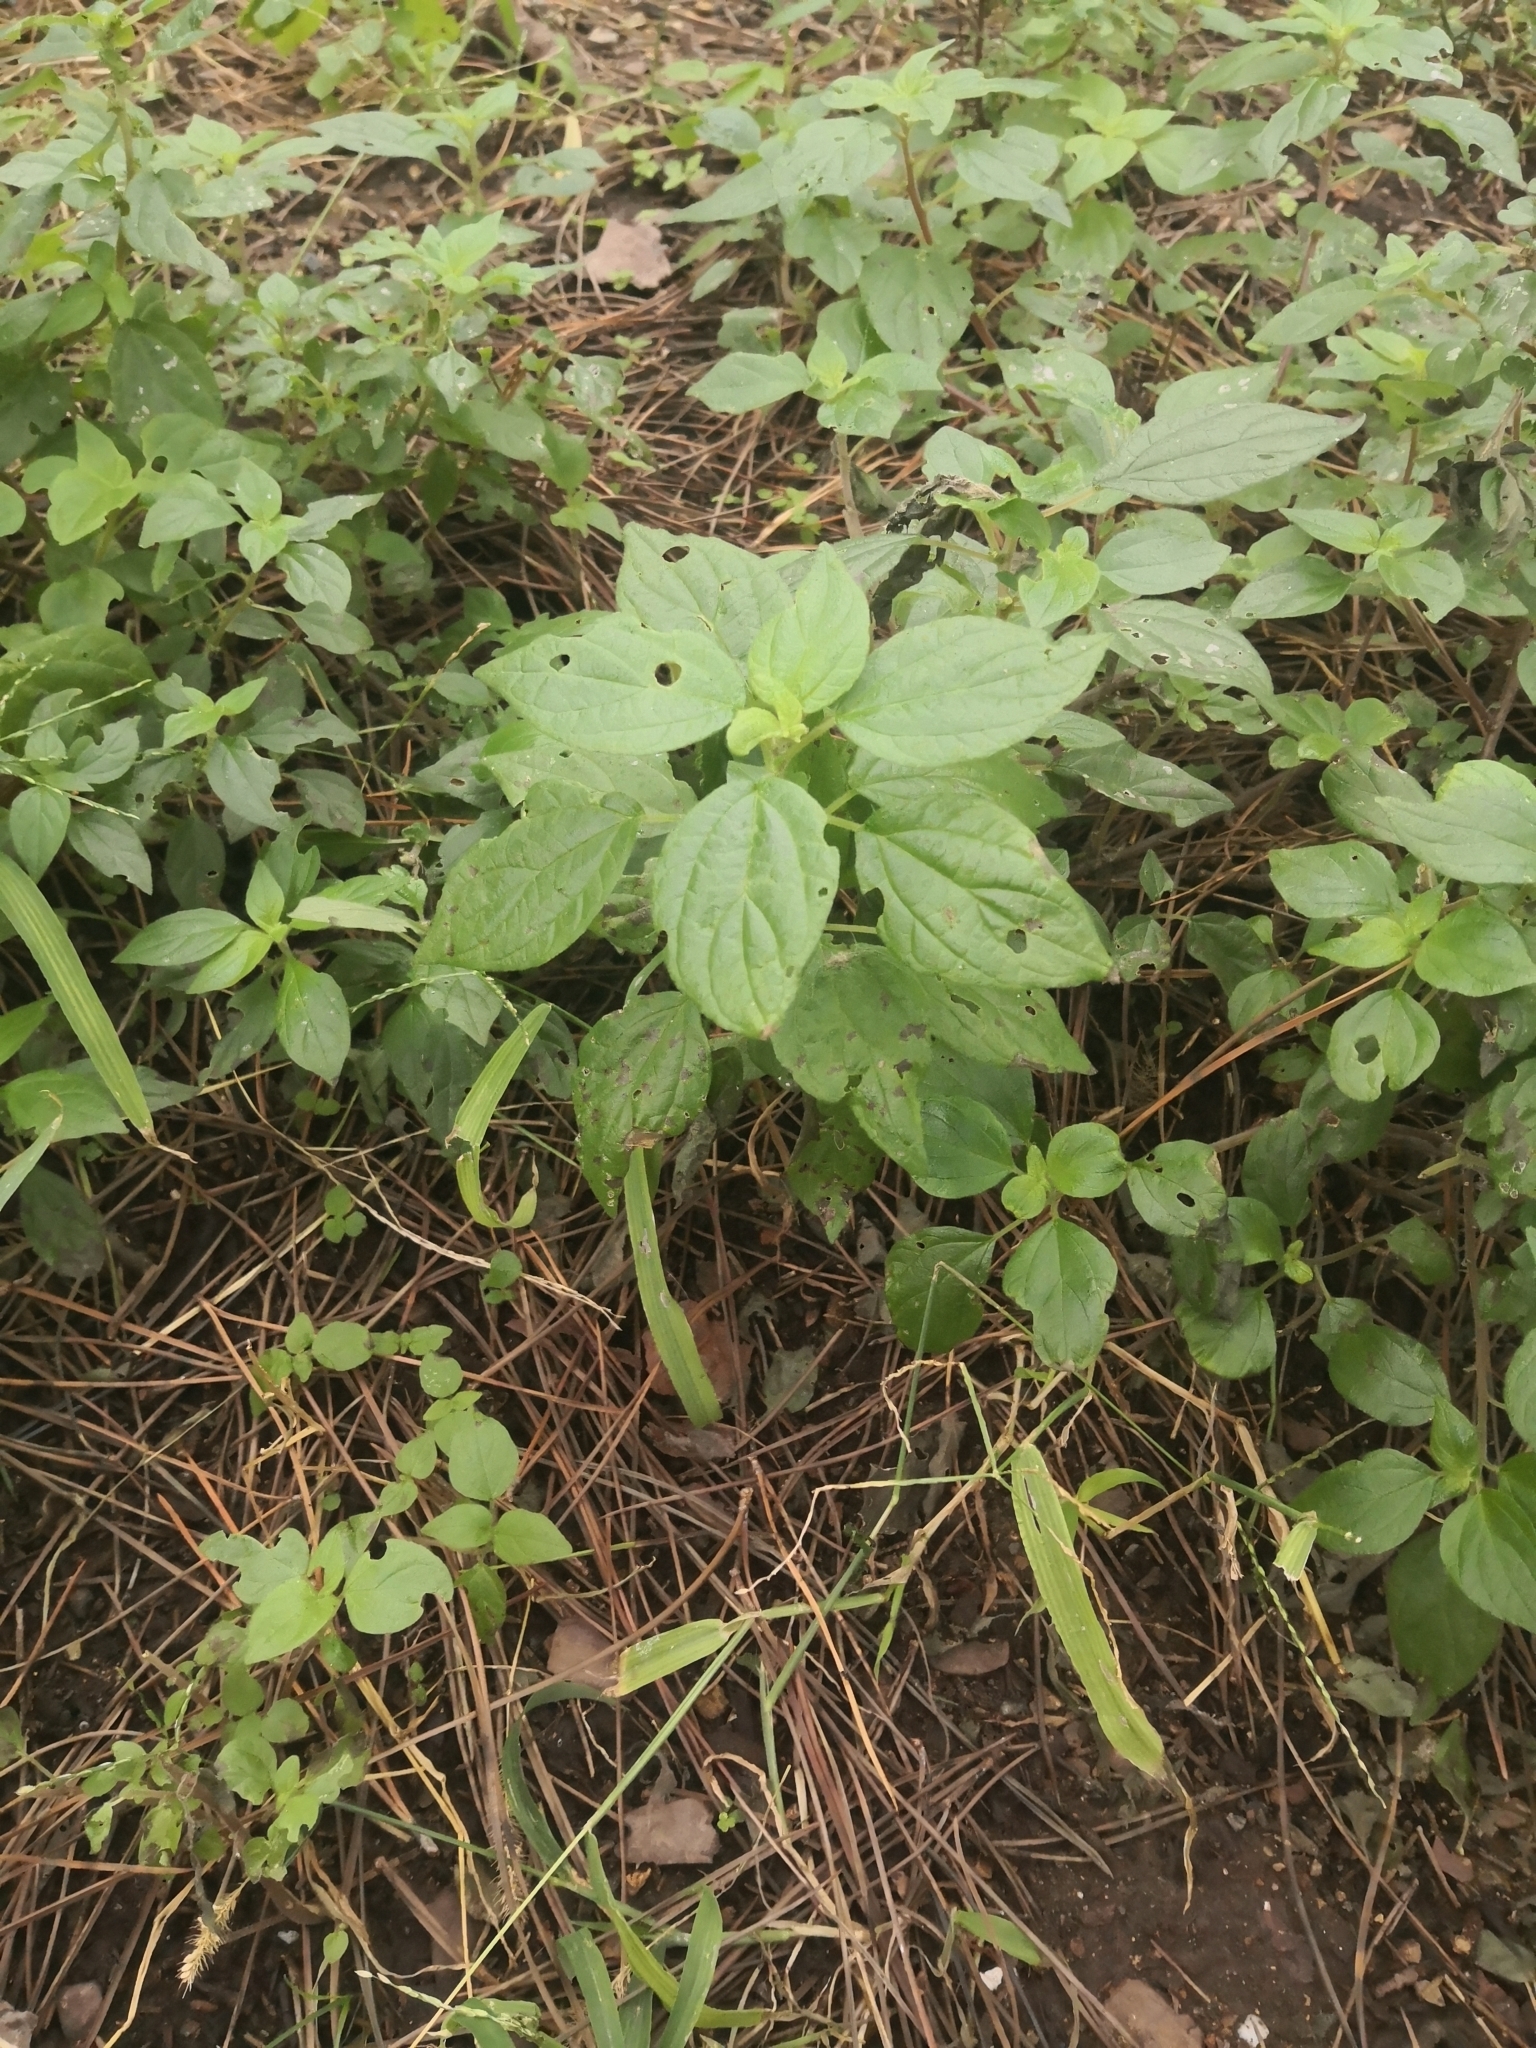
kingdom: Plantae
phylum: Tracheophyta
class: Magnoliopsida
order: Rosales
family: Urticaceae
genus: Parietaria
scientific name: Parietaria judaica
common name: Pellitory-of-the-wall
